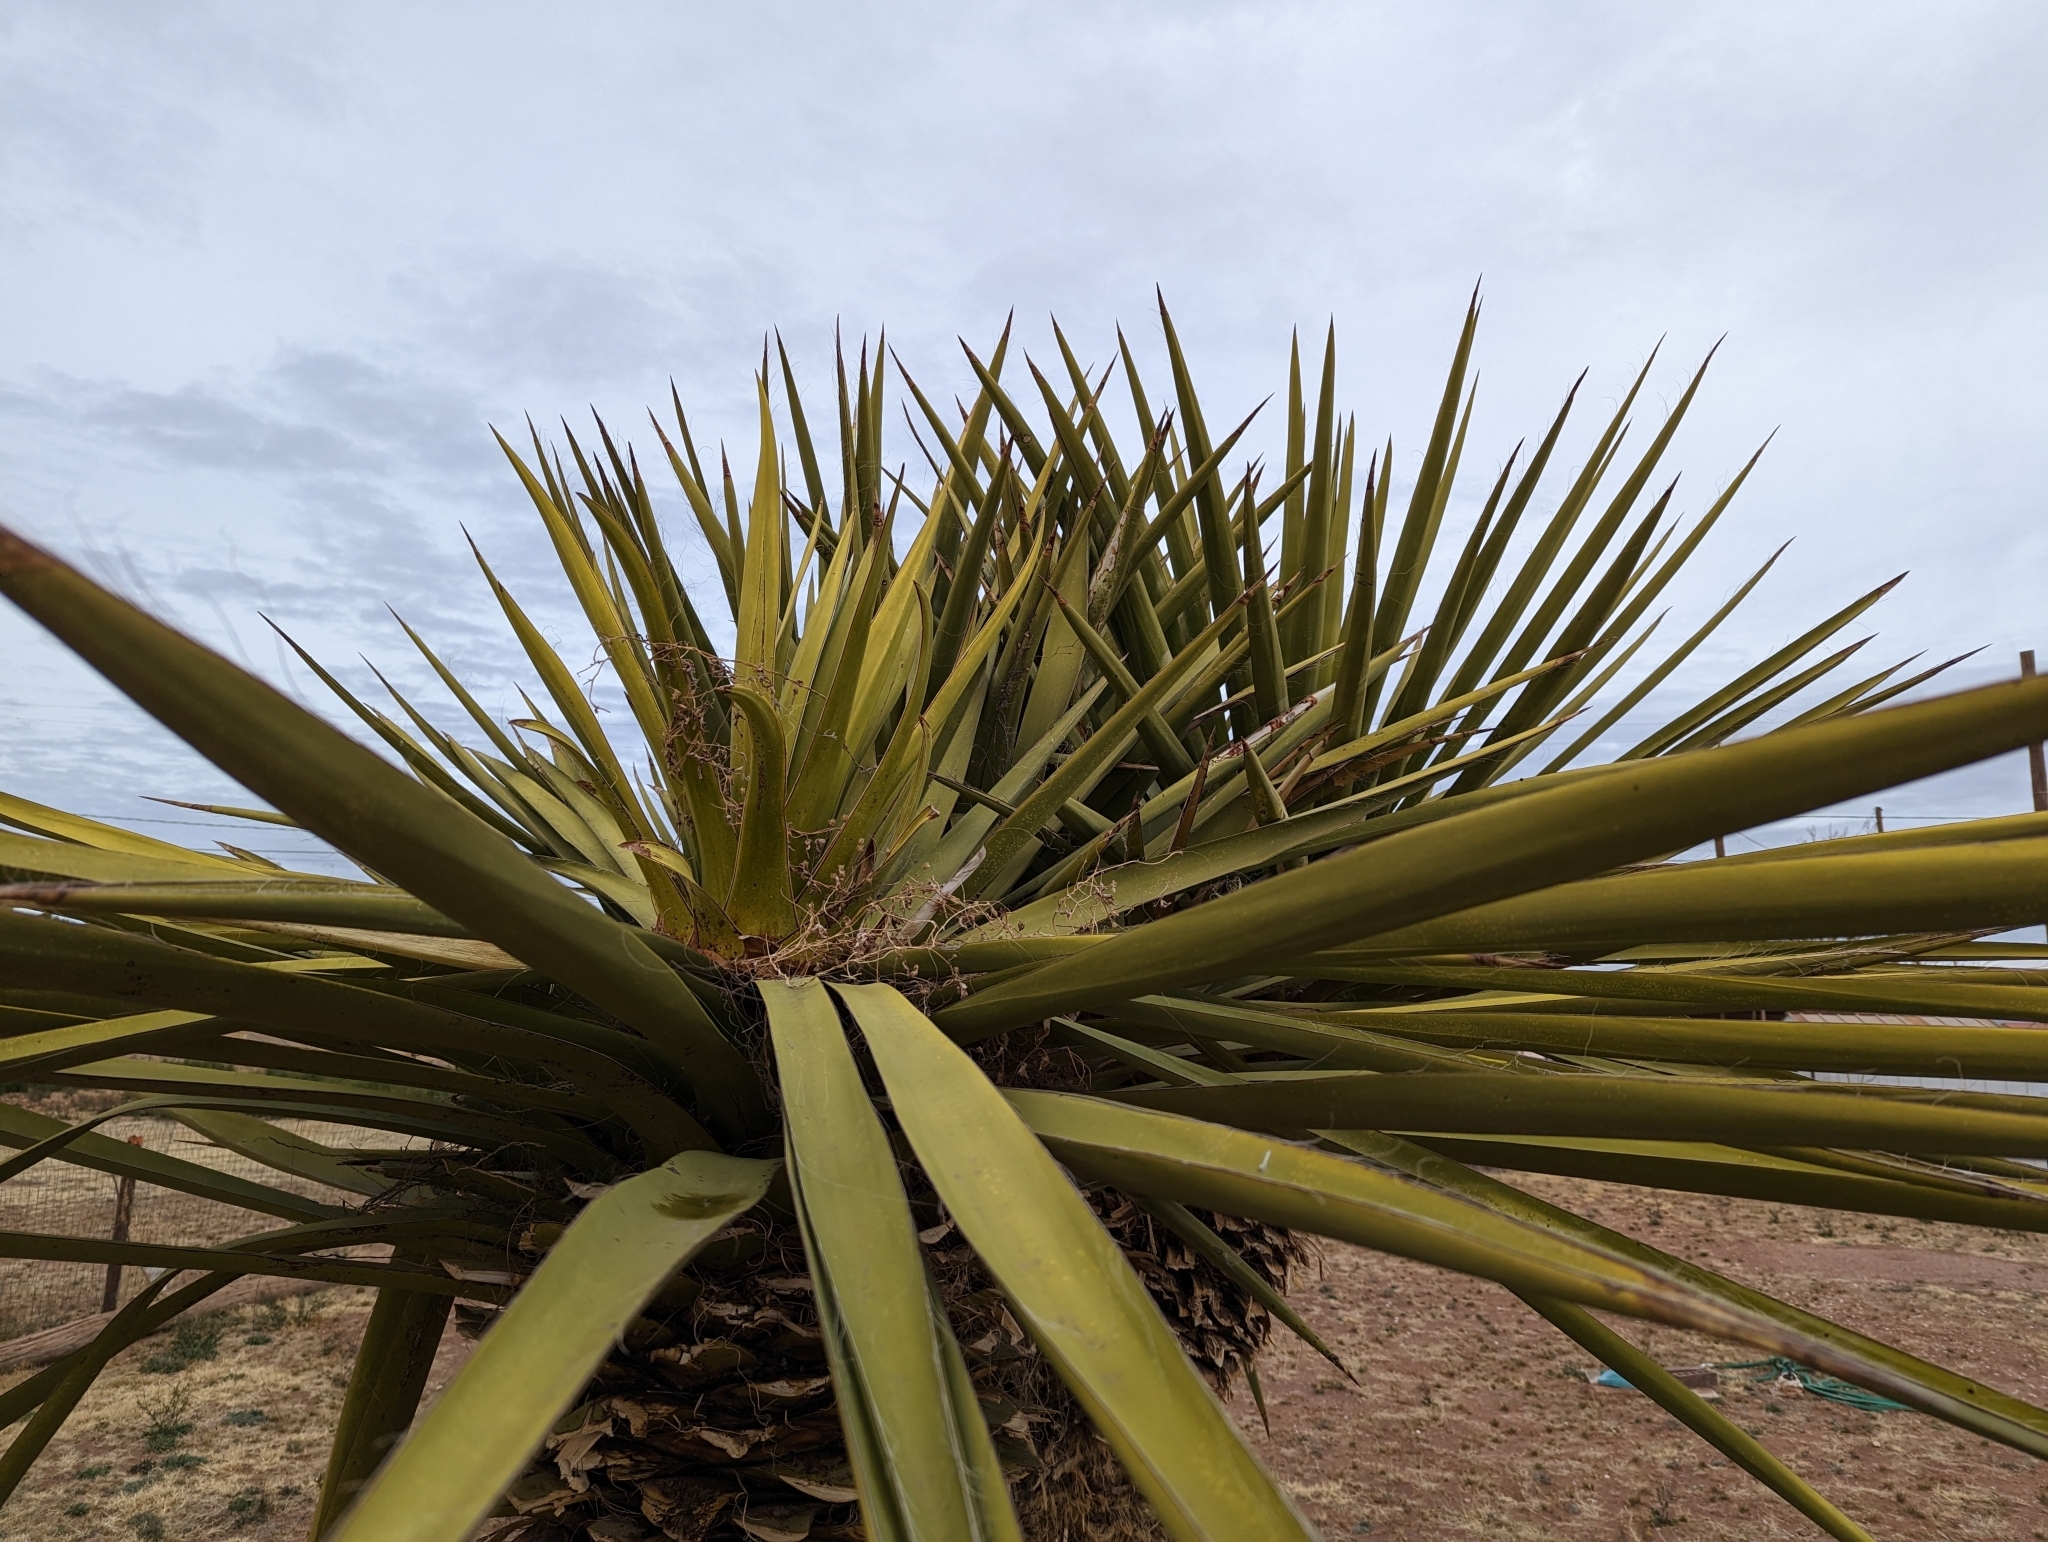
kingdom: Plantae
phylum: Tracheophyta
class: Liliopsida
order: Asparagales
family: Asparagaceae
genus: Yucca
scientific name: Yucca faxoniana
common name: Spanish dagger
